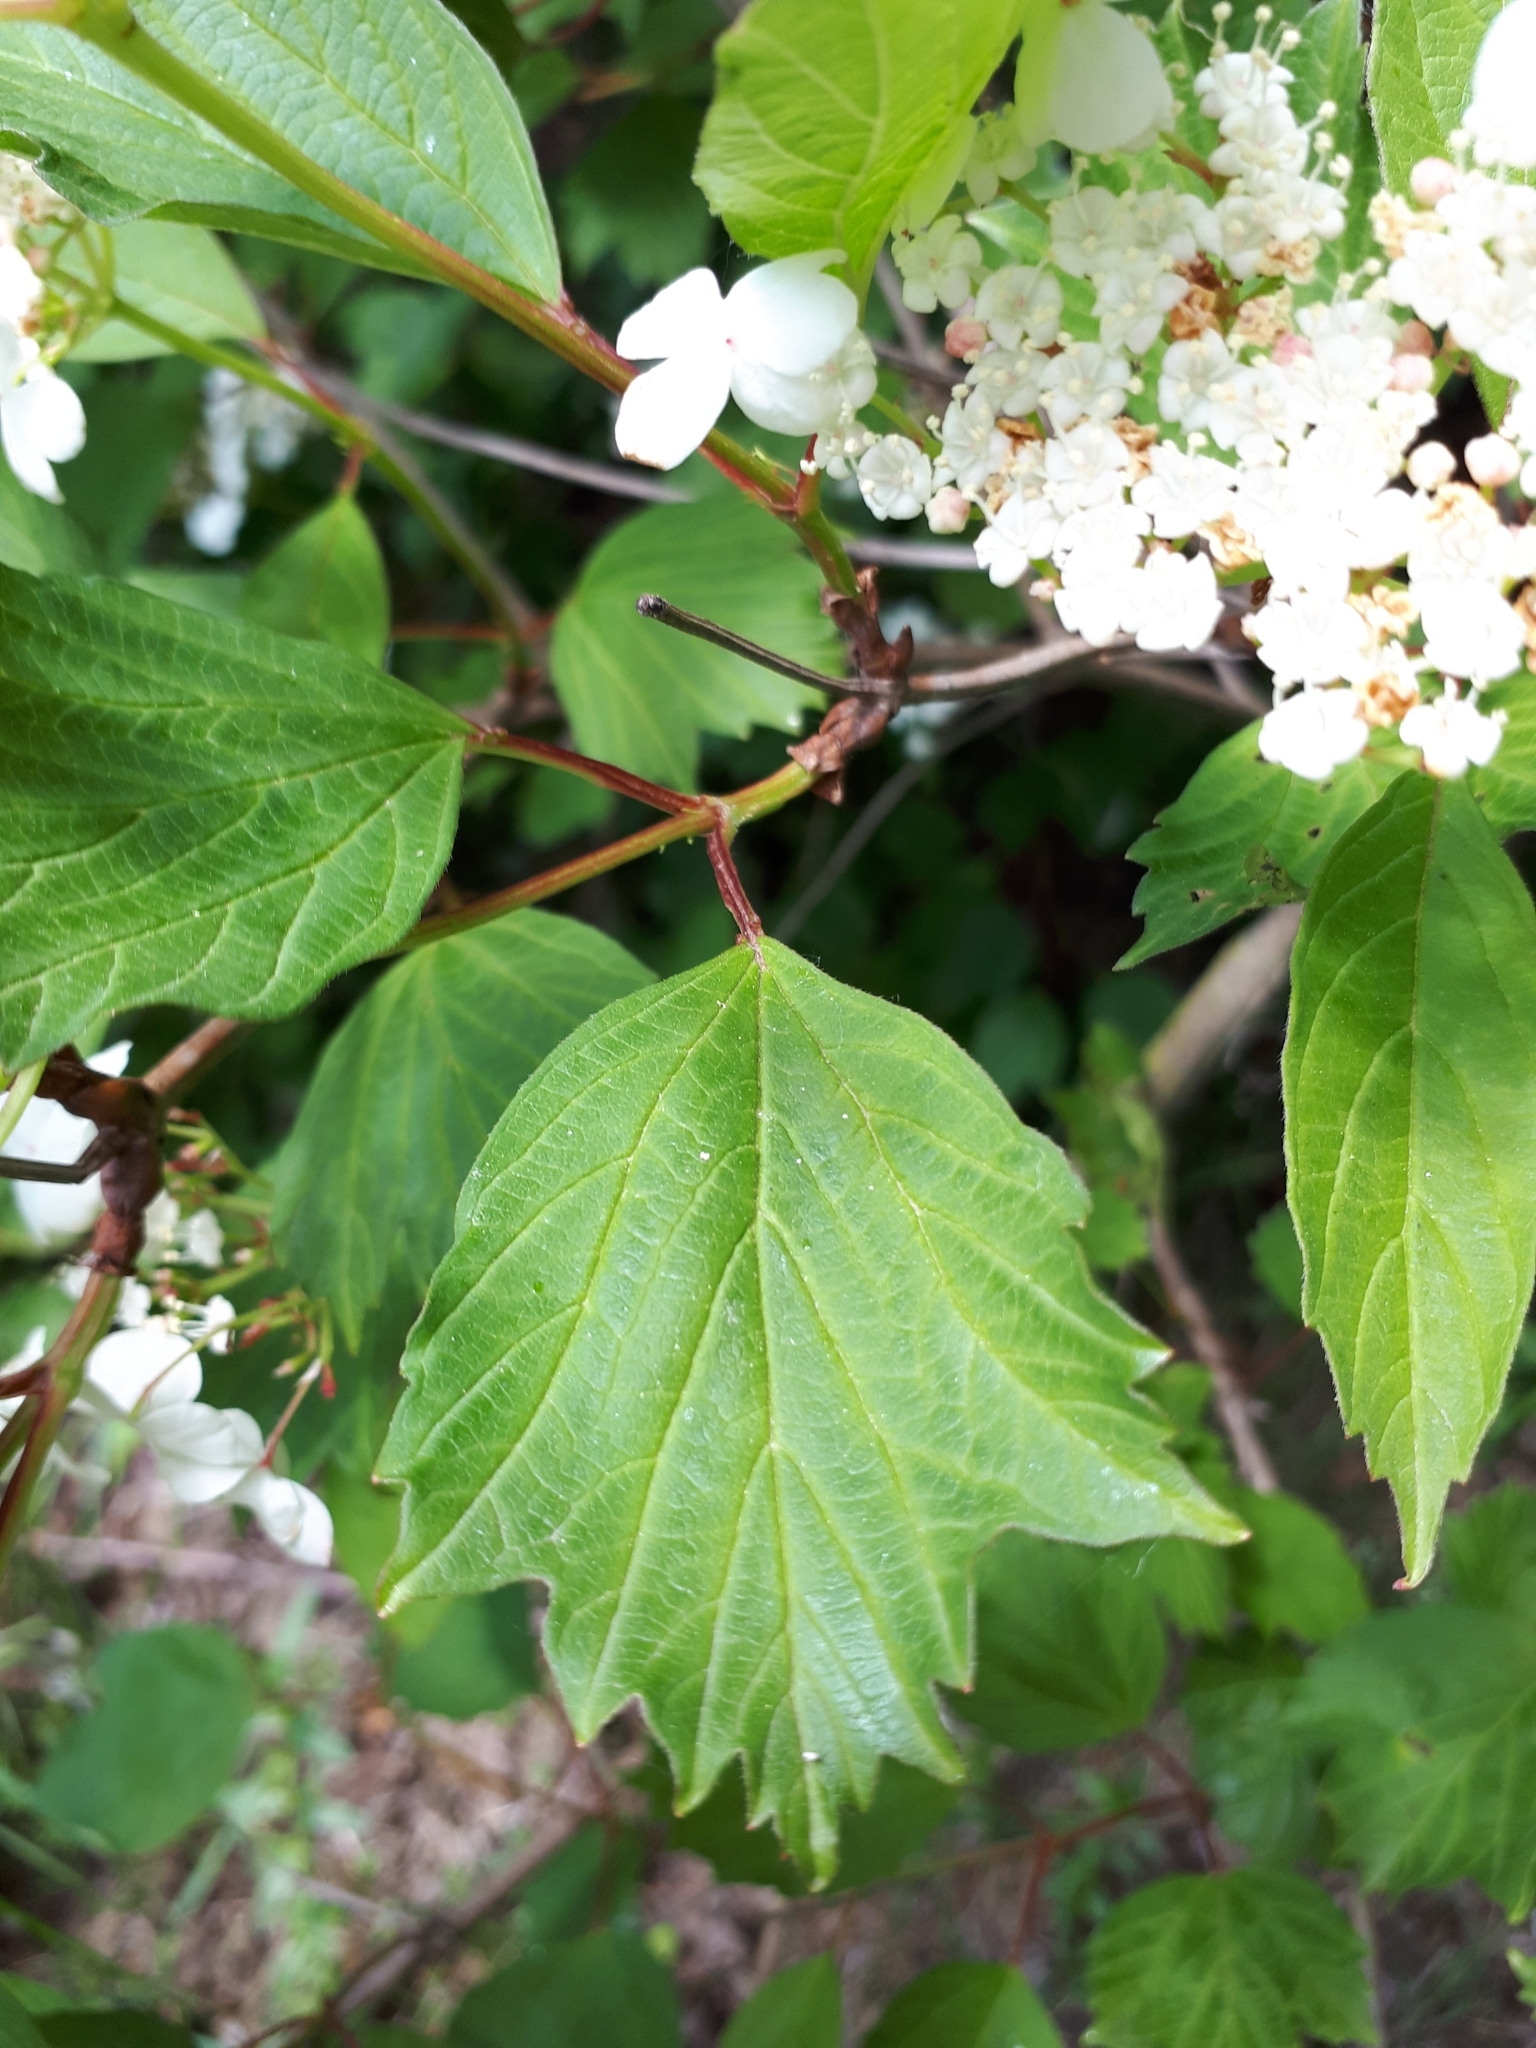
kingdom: Plantae
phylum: Tracheophyta
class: Magnoliopsida
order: Dipsacales
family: Viburnaceae
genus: Viburnum
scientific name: Viburnum opulus
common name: Guelder-rose
